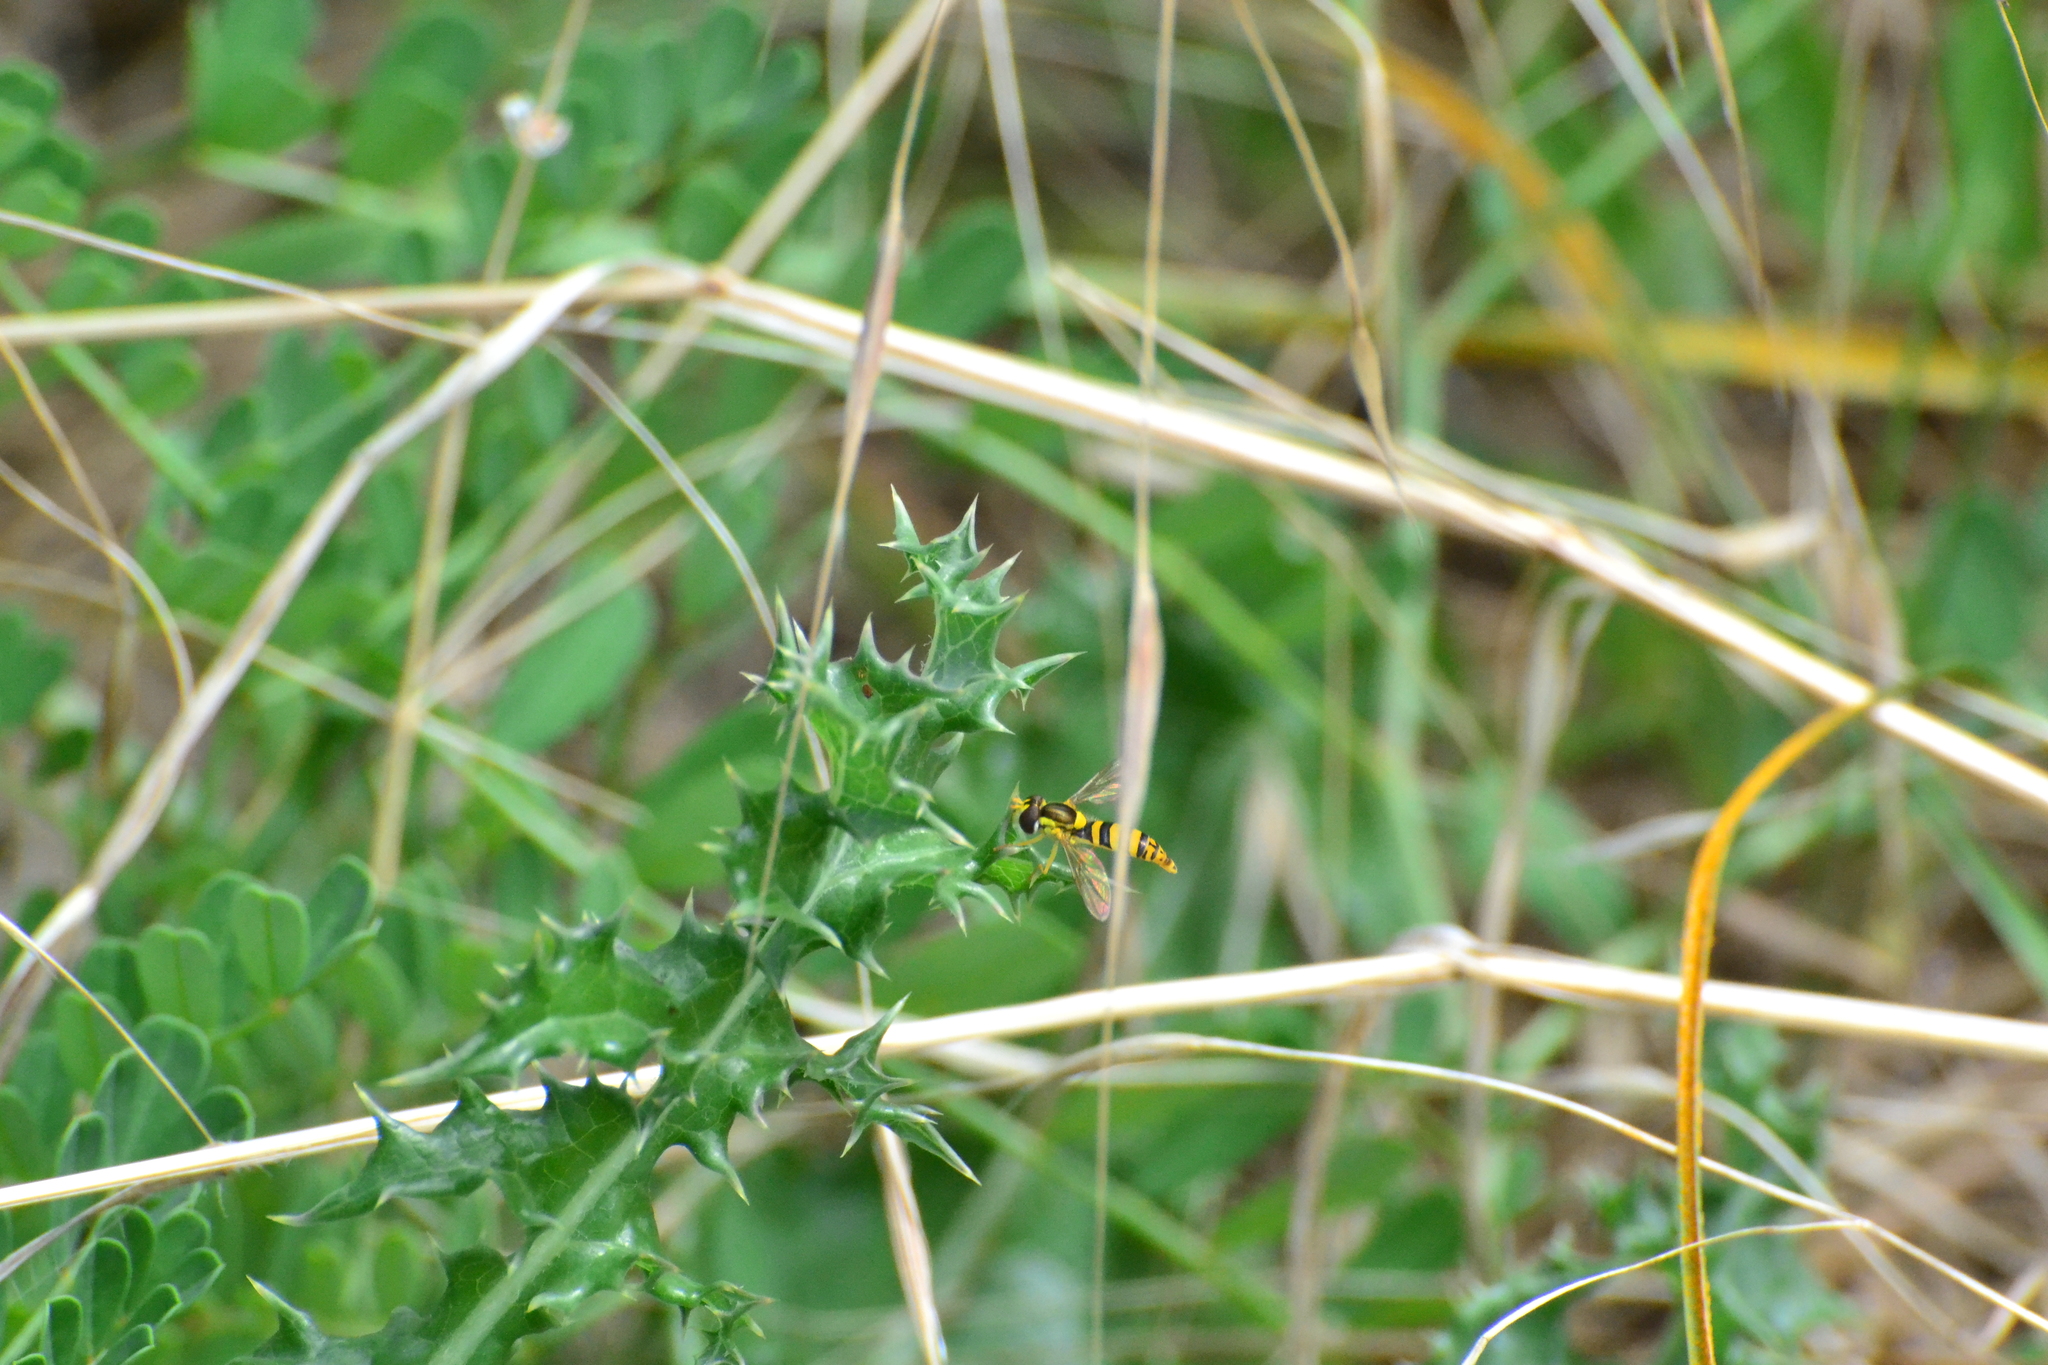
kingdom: Animalia
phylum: Arthropoda
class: Insecta
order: Diptera
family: Syrphidae
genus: Sphaerophoria
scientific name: Sphaerophoria
